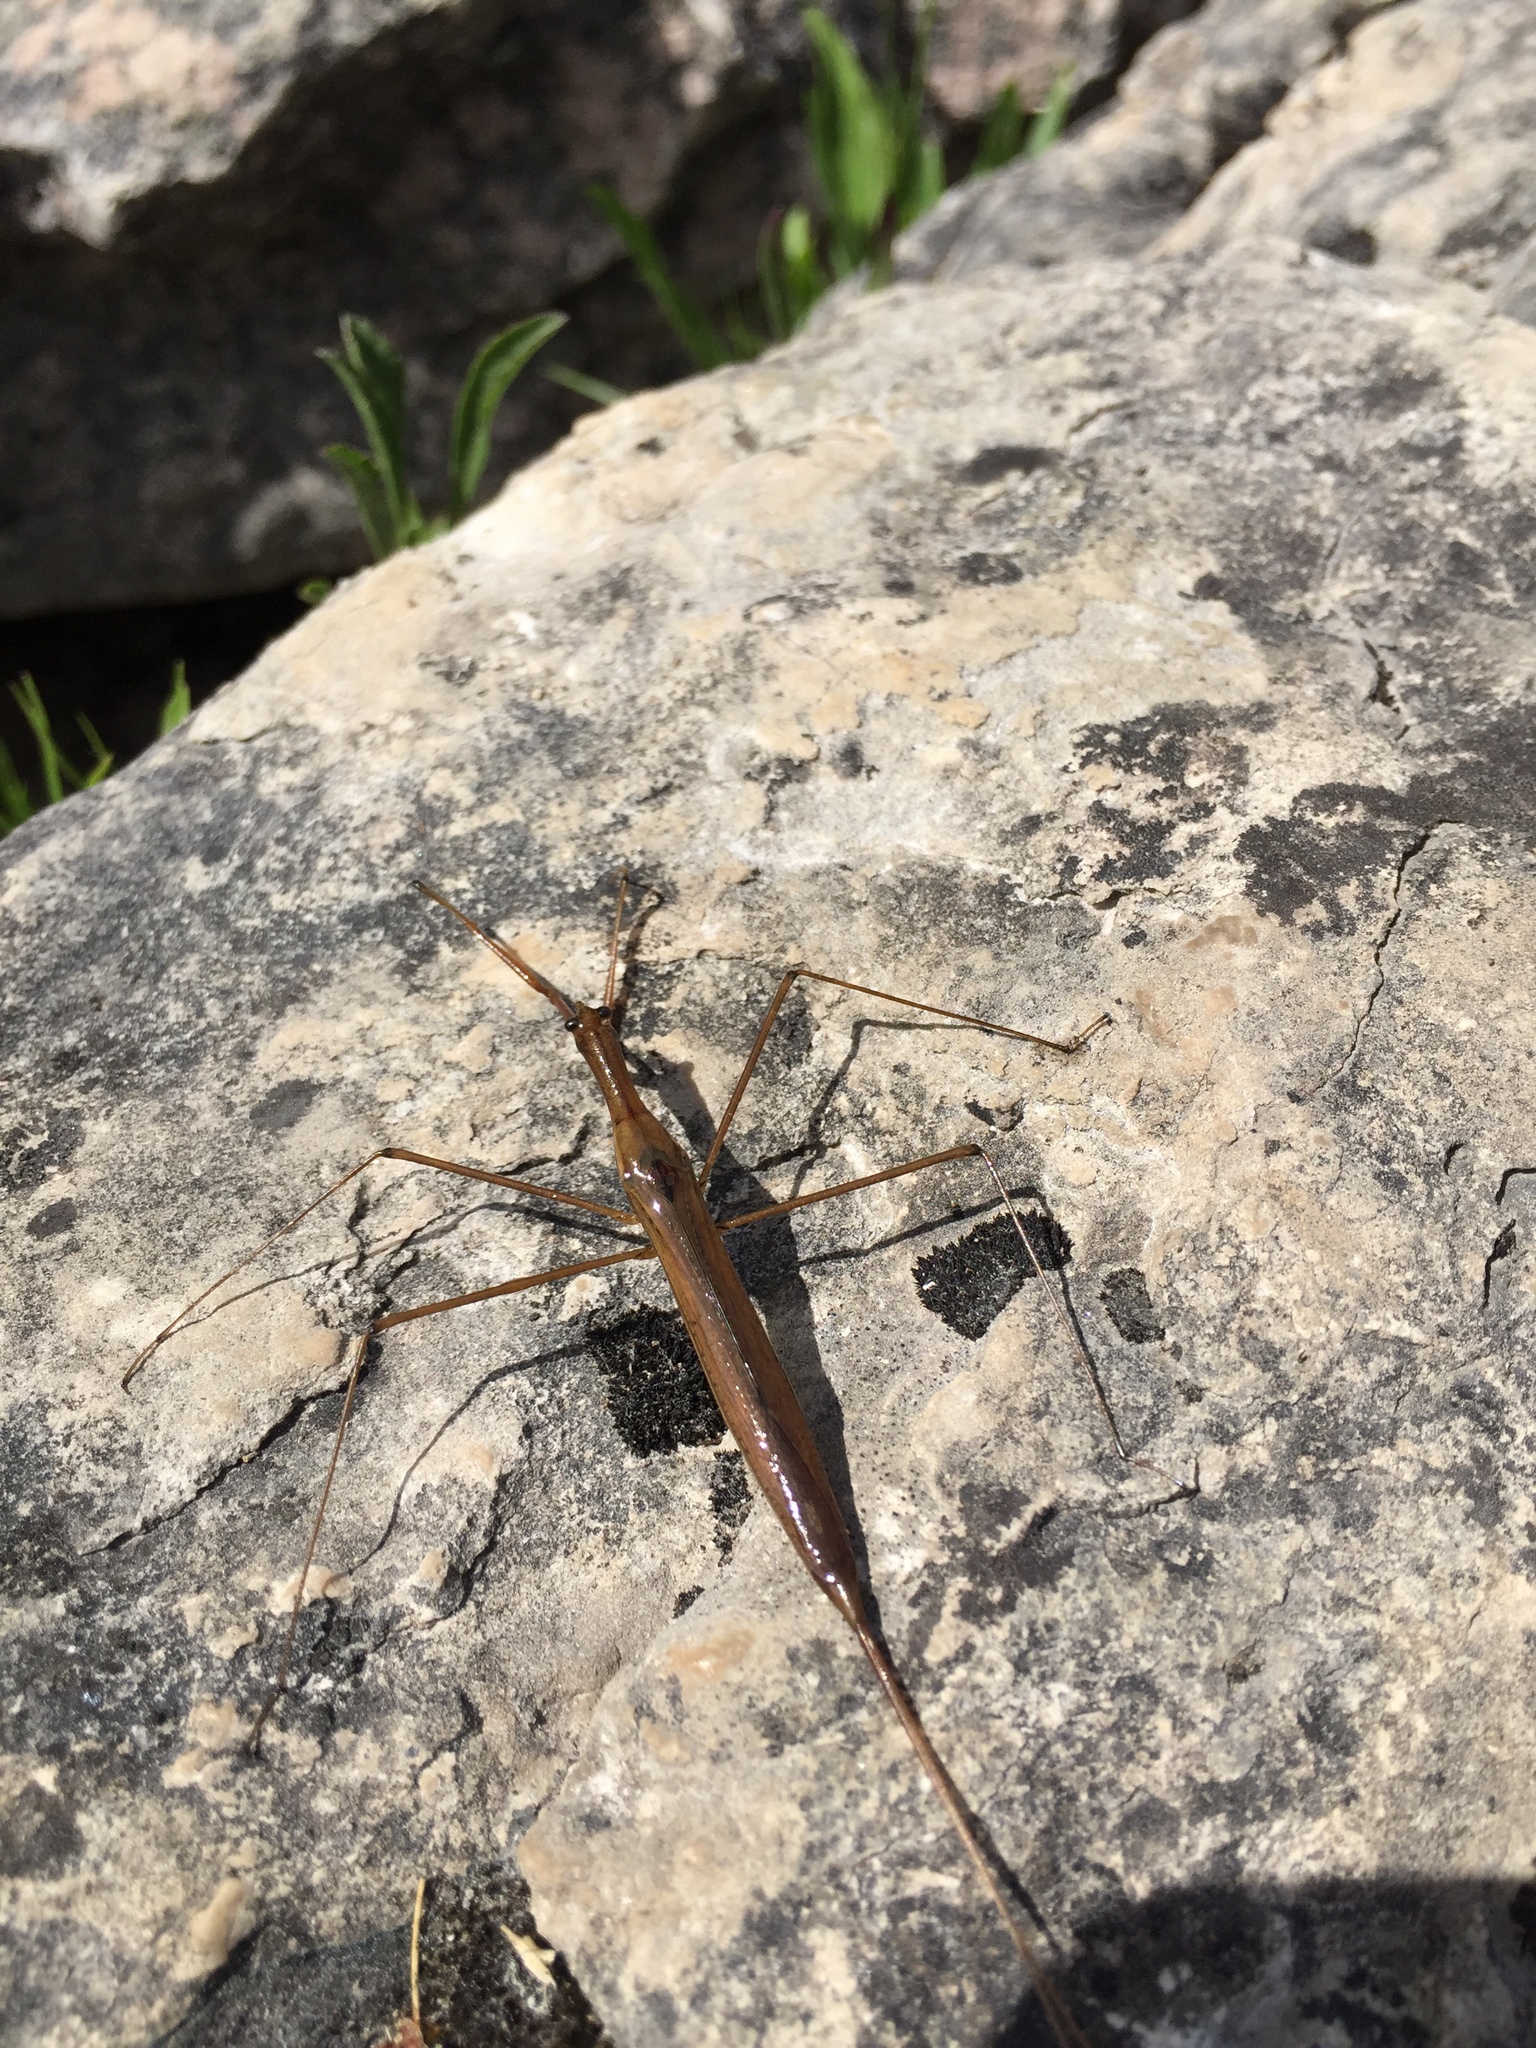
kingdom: Animalia
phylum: Arthropoda
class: Insecta
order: Hemiptera
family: Nepidae
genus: Ranatra
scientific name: Ranatra fusca
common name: Brown waterscorpion
